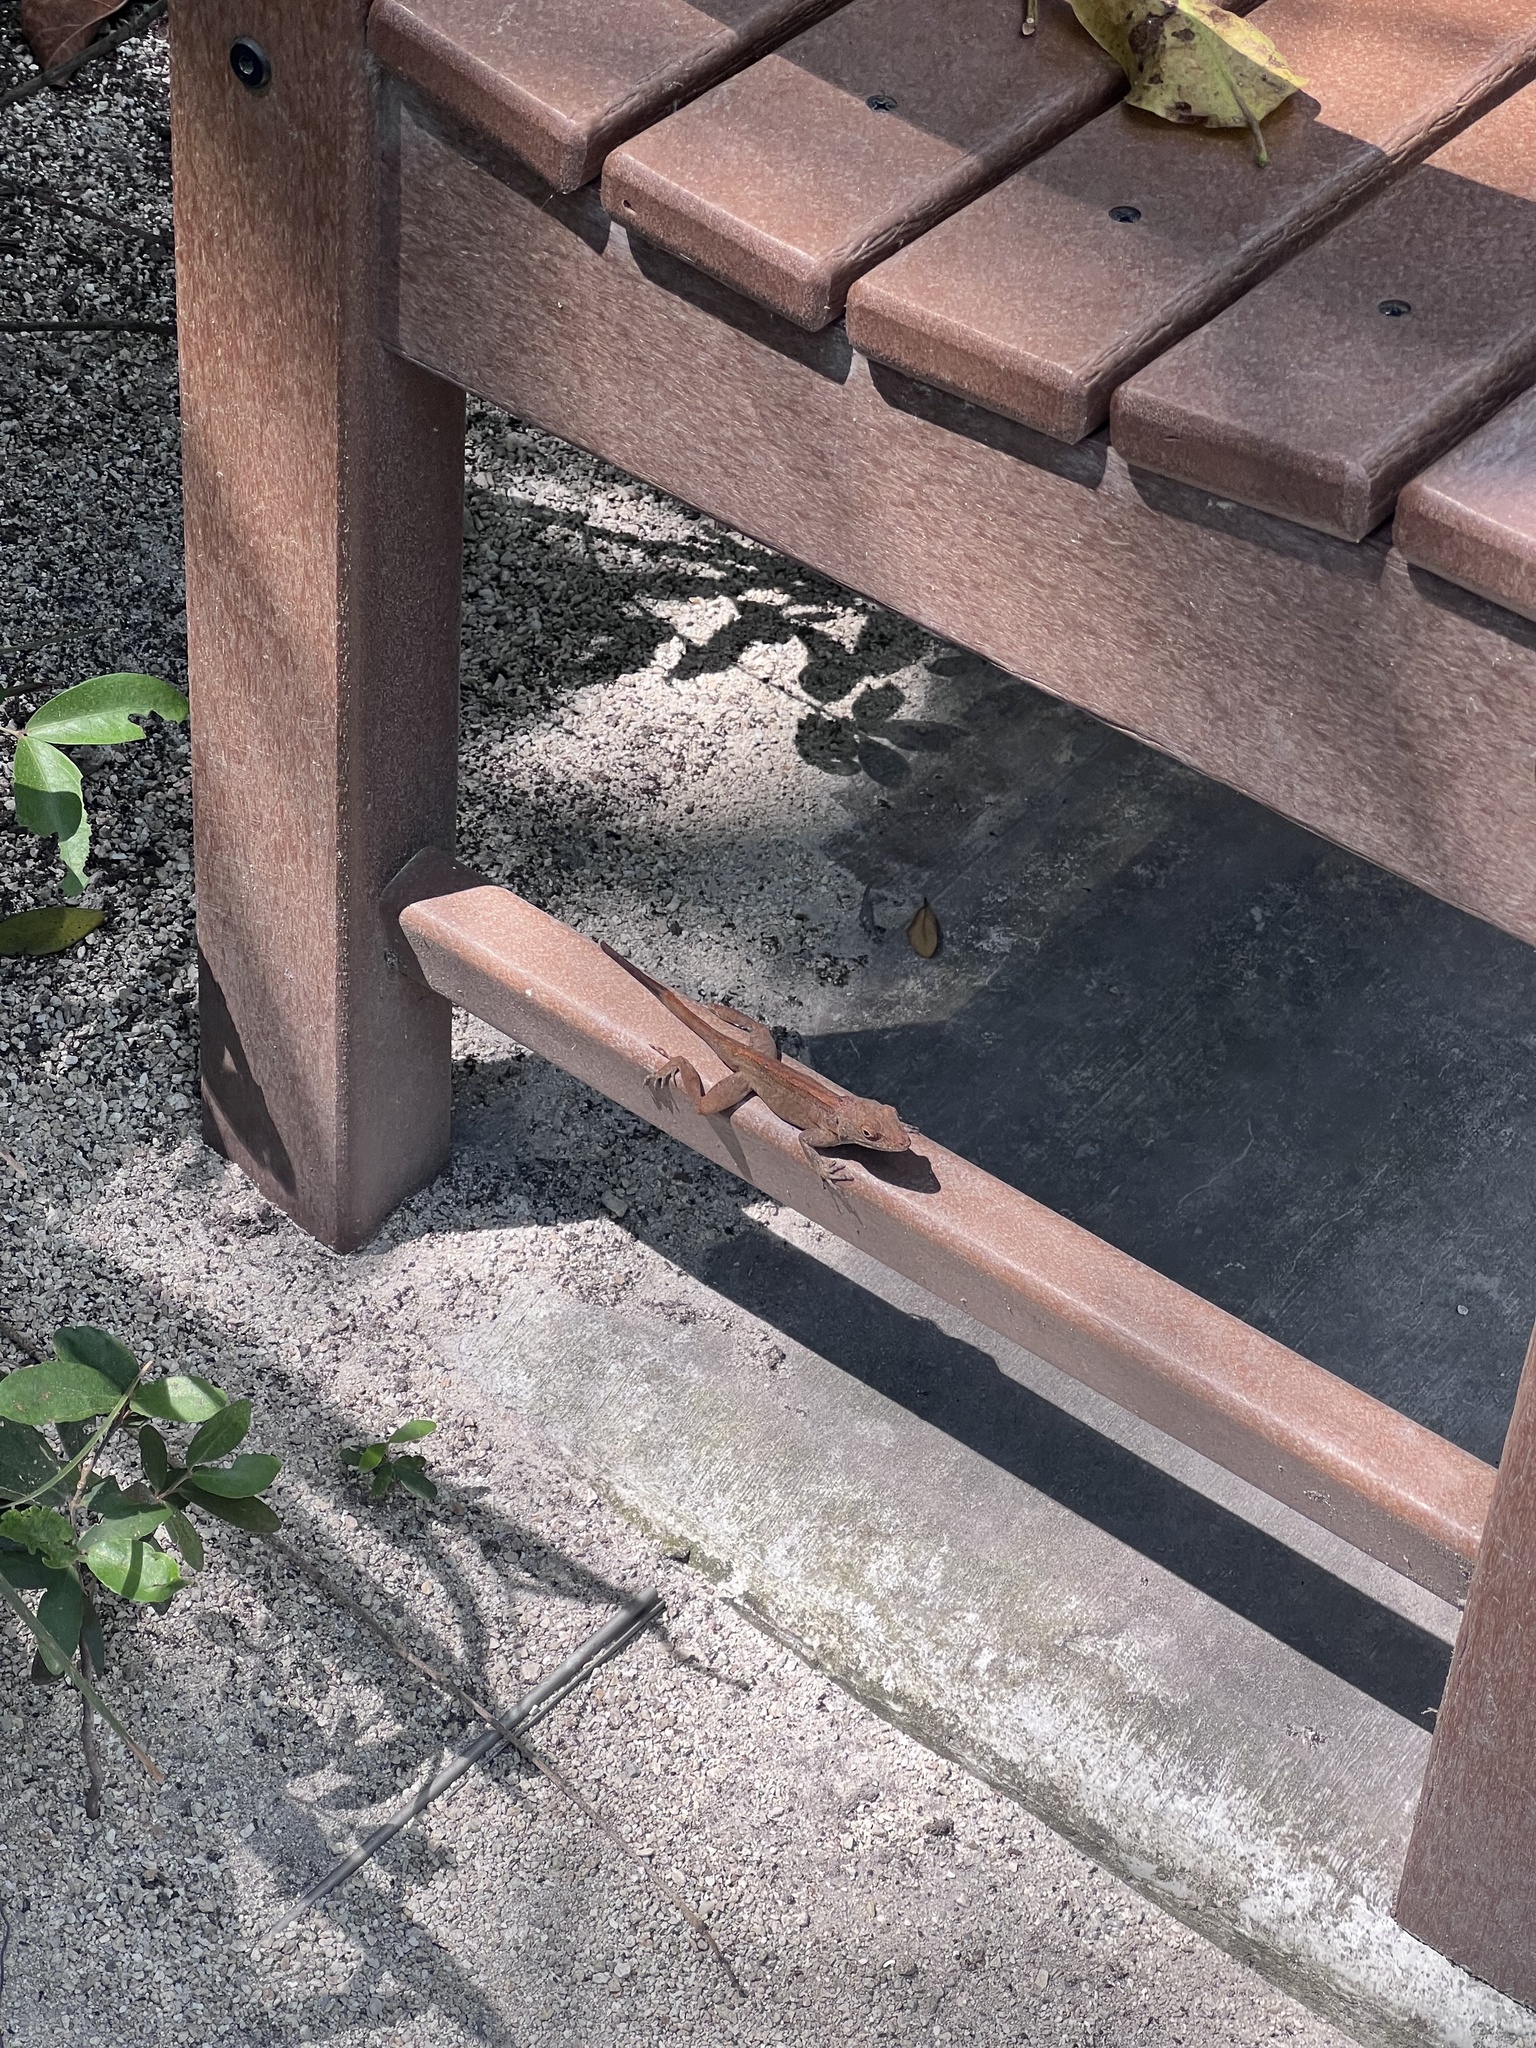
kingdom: Animalia
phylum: Chordata
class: Squamata
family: Dactyloidae
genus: Anolis
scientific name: Anolis cristatellus
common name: Crested anole
